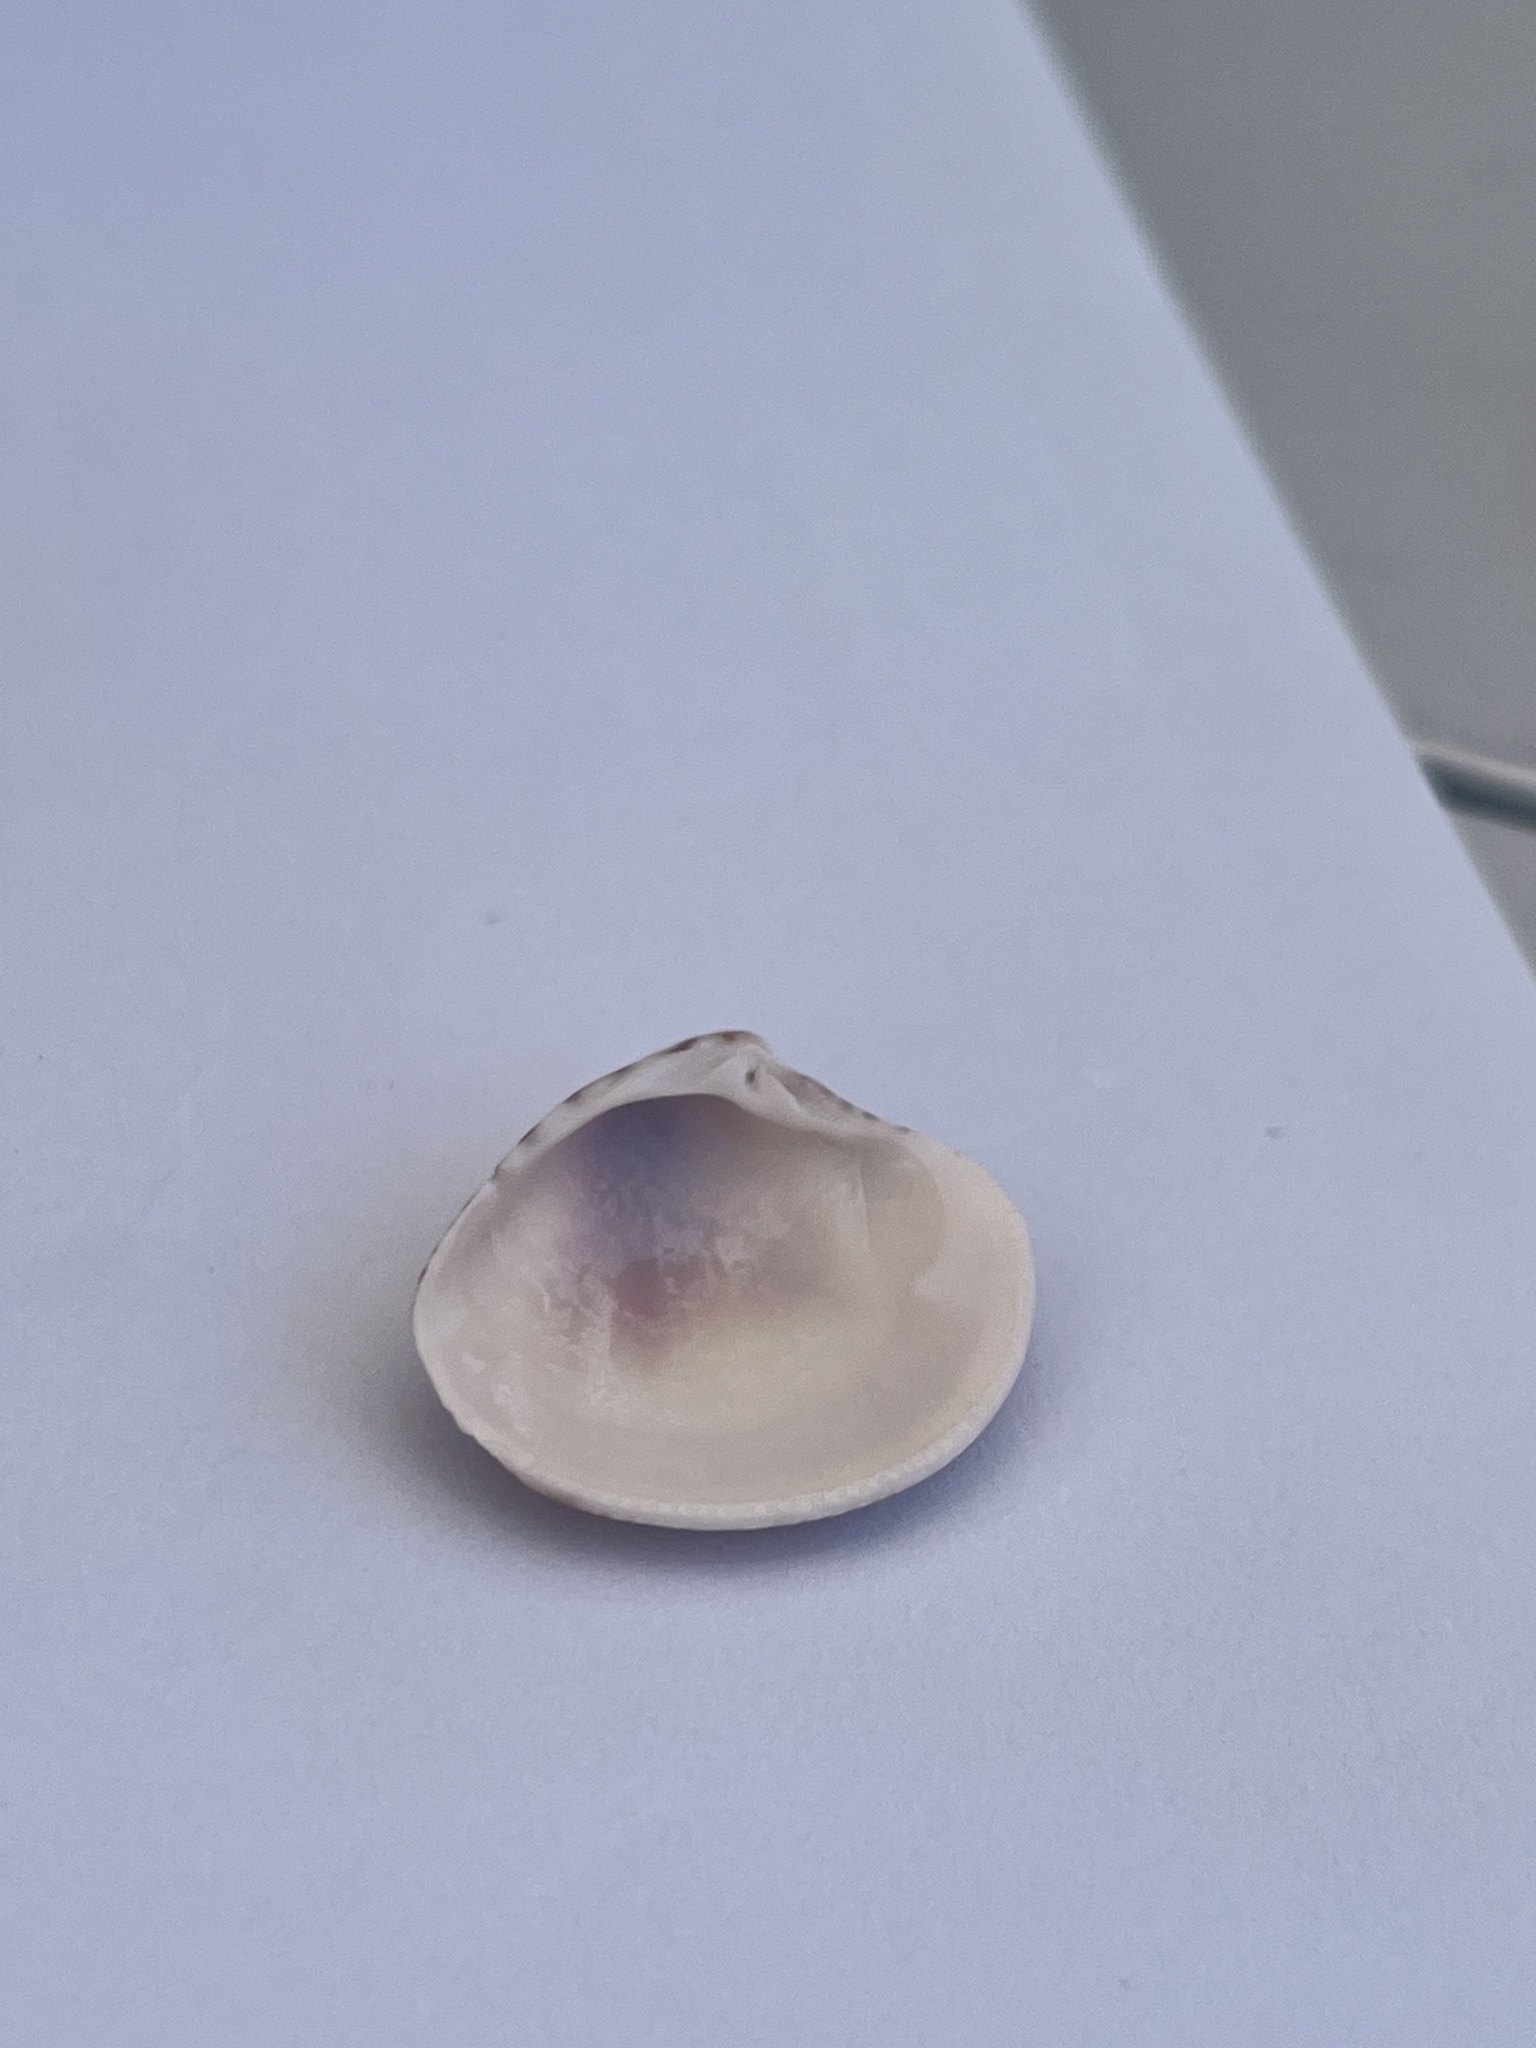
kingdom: Animalia
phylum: Mollusca
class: Bivalvia
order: Venerida
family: Veneridae
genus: Chamelea
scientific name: Chamelea gallina
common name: Chicken venus
